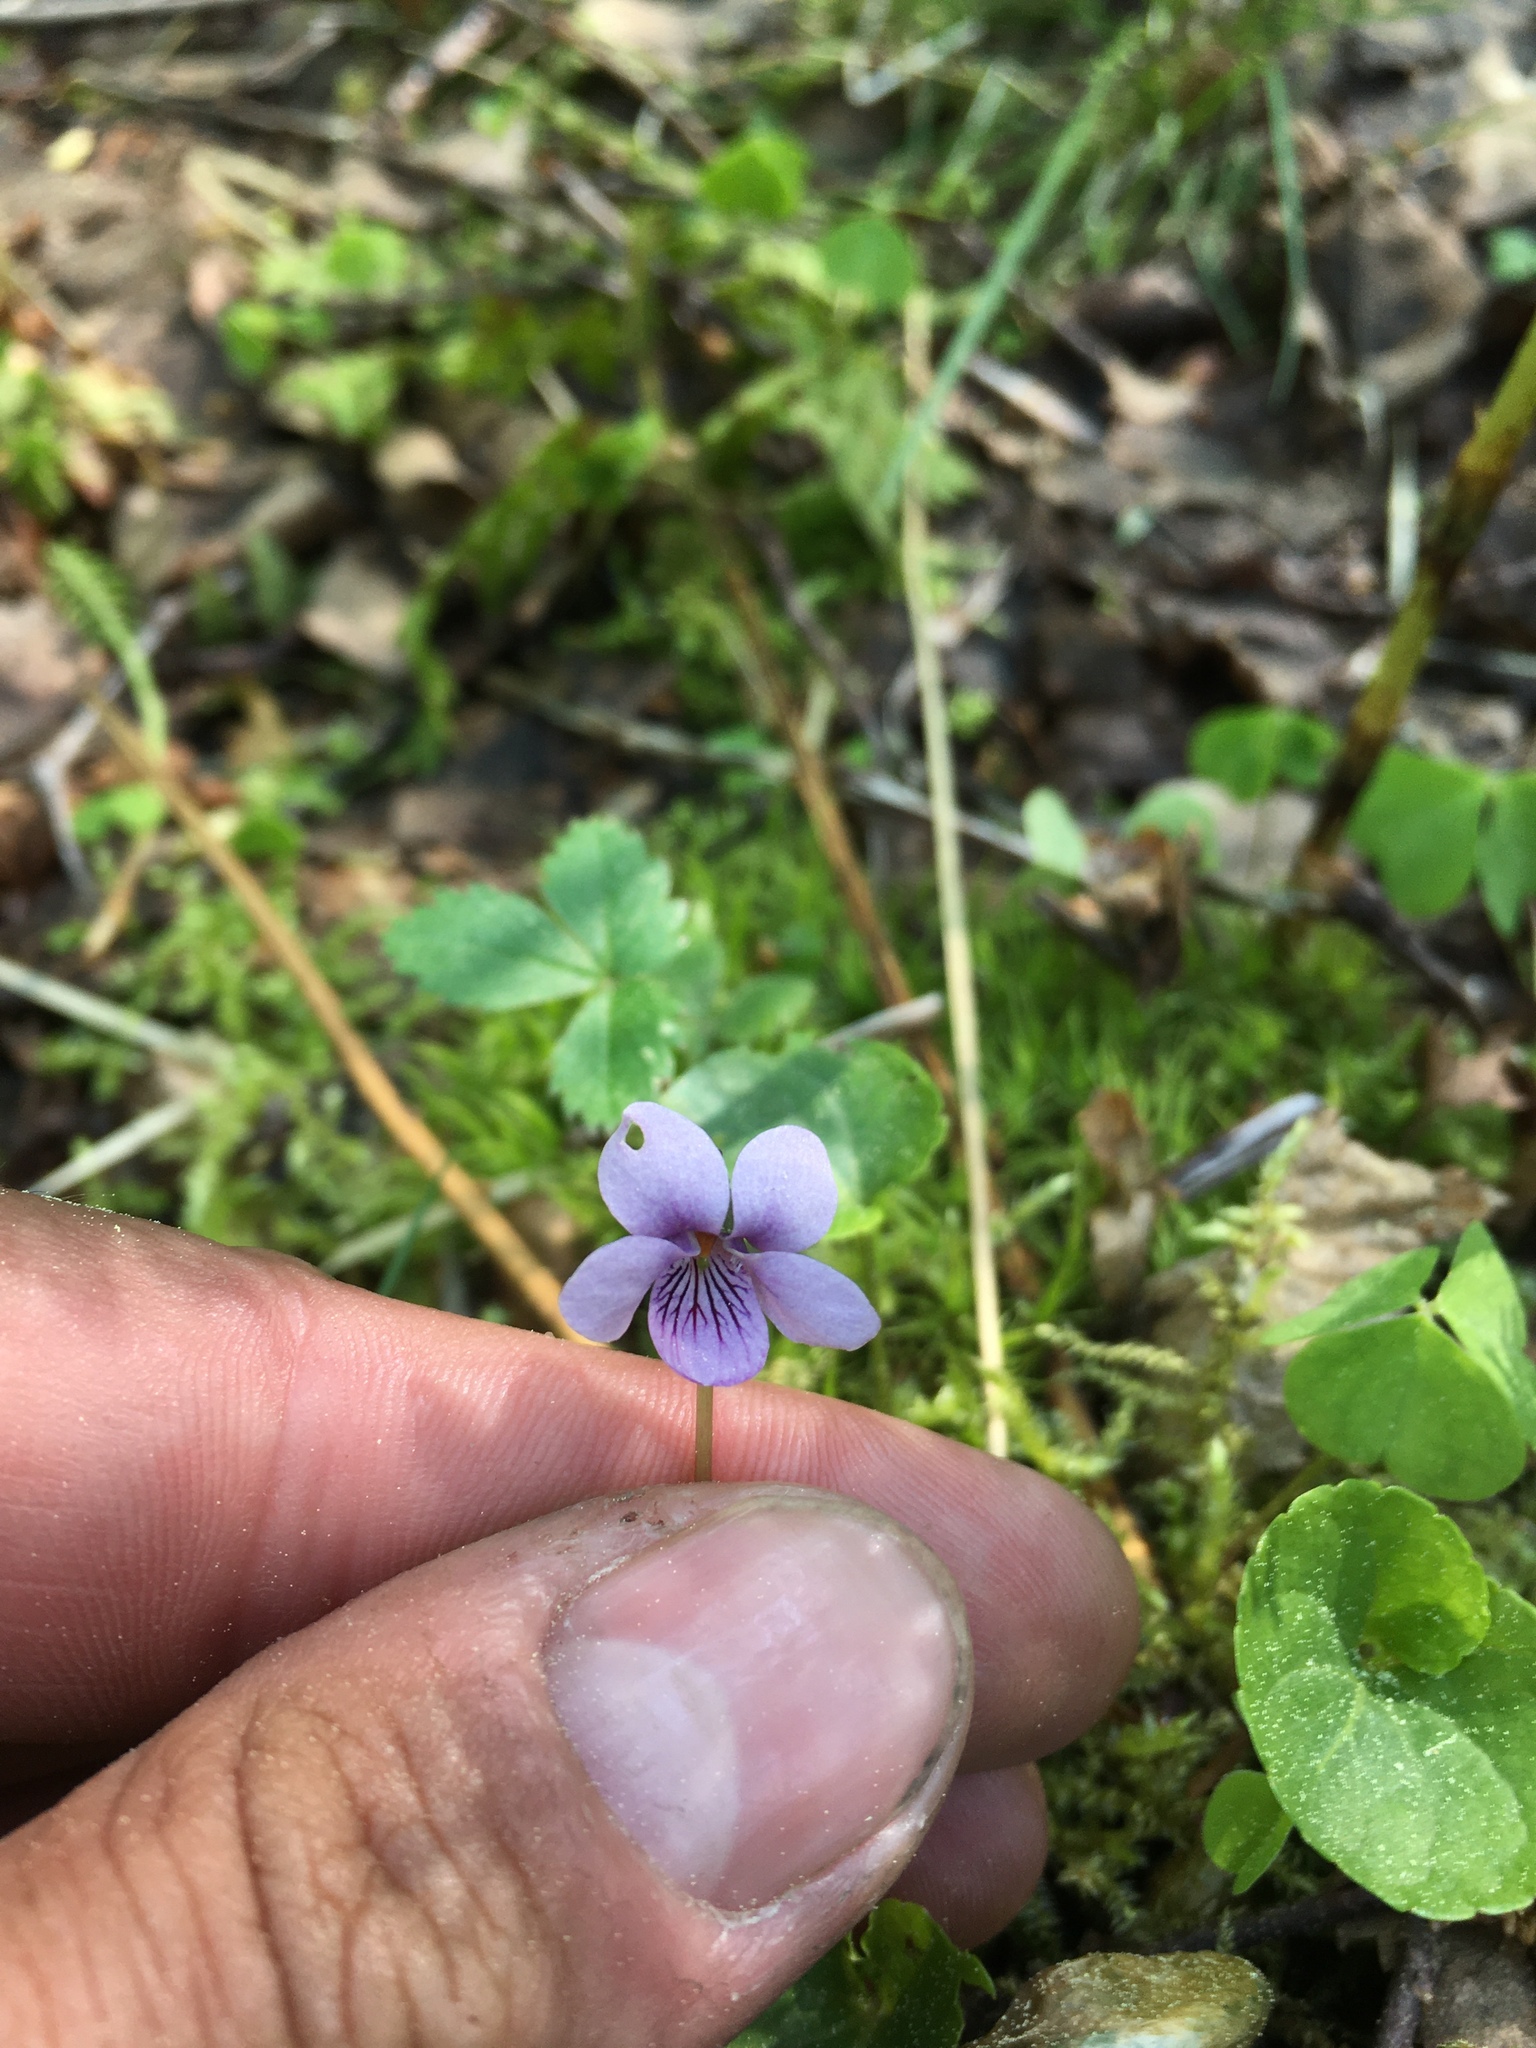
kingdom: Plantae
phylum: Tracheophyta
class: Magnoliopsida
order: Malpighiales
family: Violaceae
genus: Viola
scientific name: Viola palustris
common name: Marsh violet
